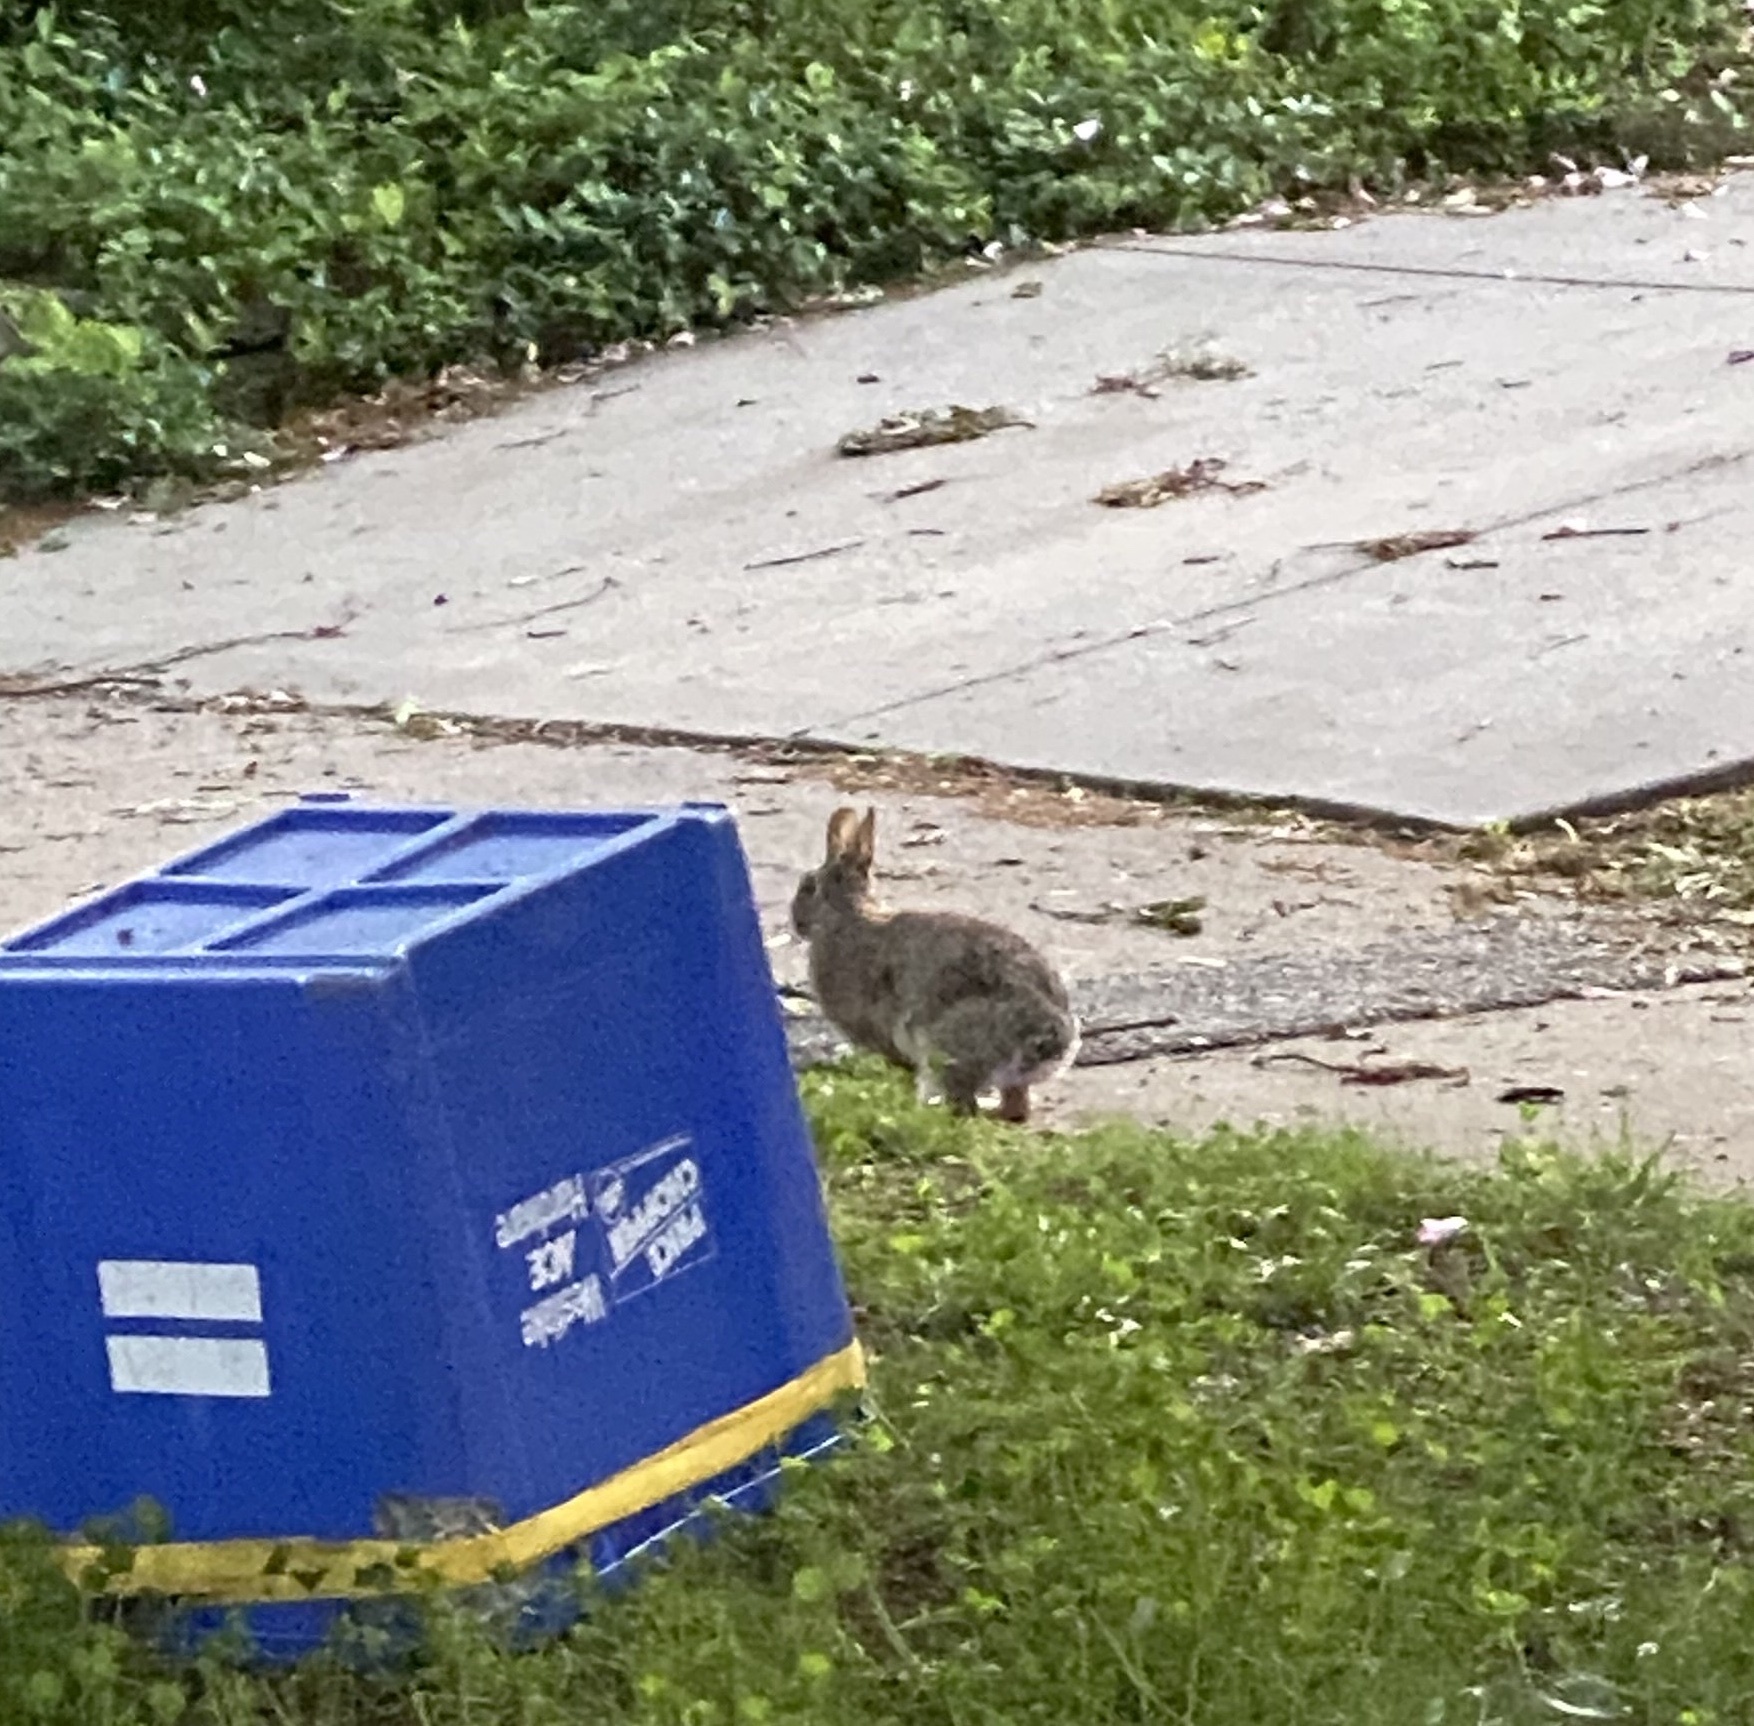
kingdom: Animalia
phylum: Chordata
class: Mammalia
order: Lagomorpha
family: Leporidae
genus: Sylvilagus
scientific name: Sylvilagus floridanus
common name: Eastern cottontail
